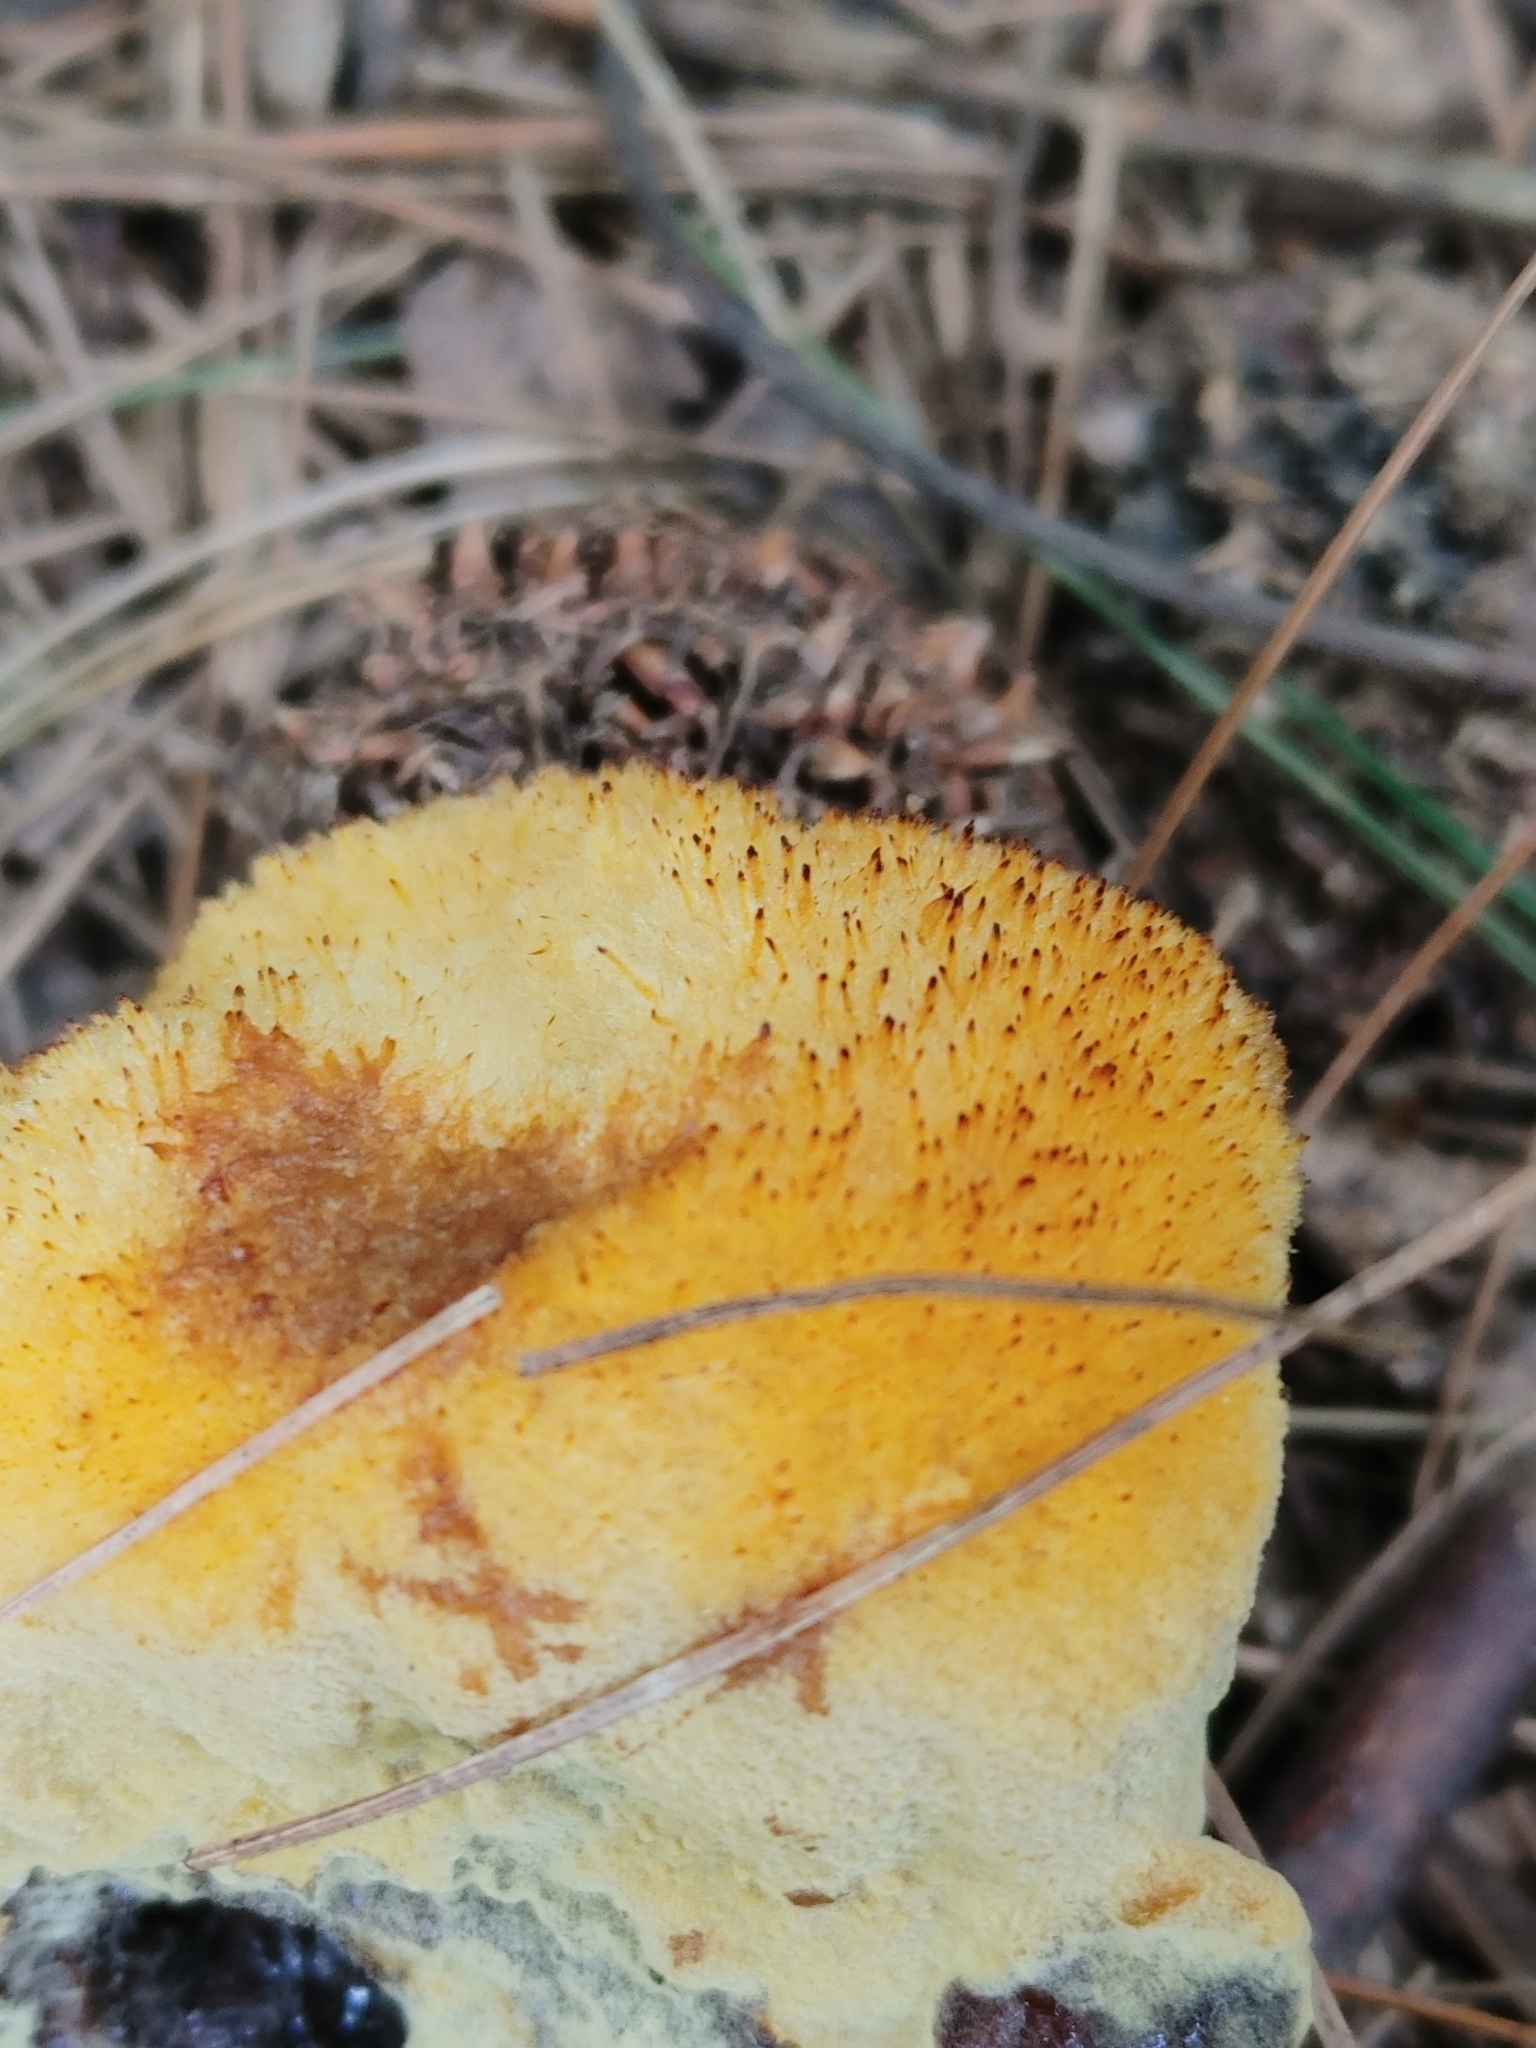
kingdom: Fungi
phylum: Basidiomycota
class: Agaricomycetes
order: Polyporales
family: Laetiporaceae
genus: Phaeolus
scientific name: Phaeolus schweinitzii
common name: Dyer's mazegill
